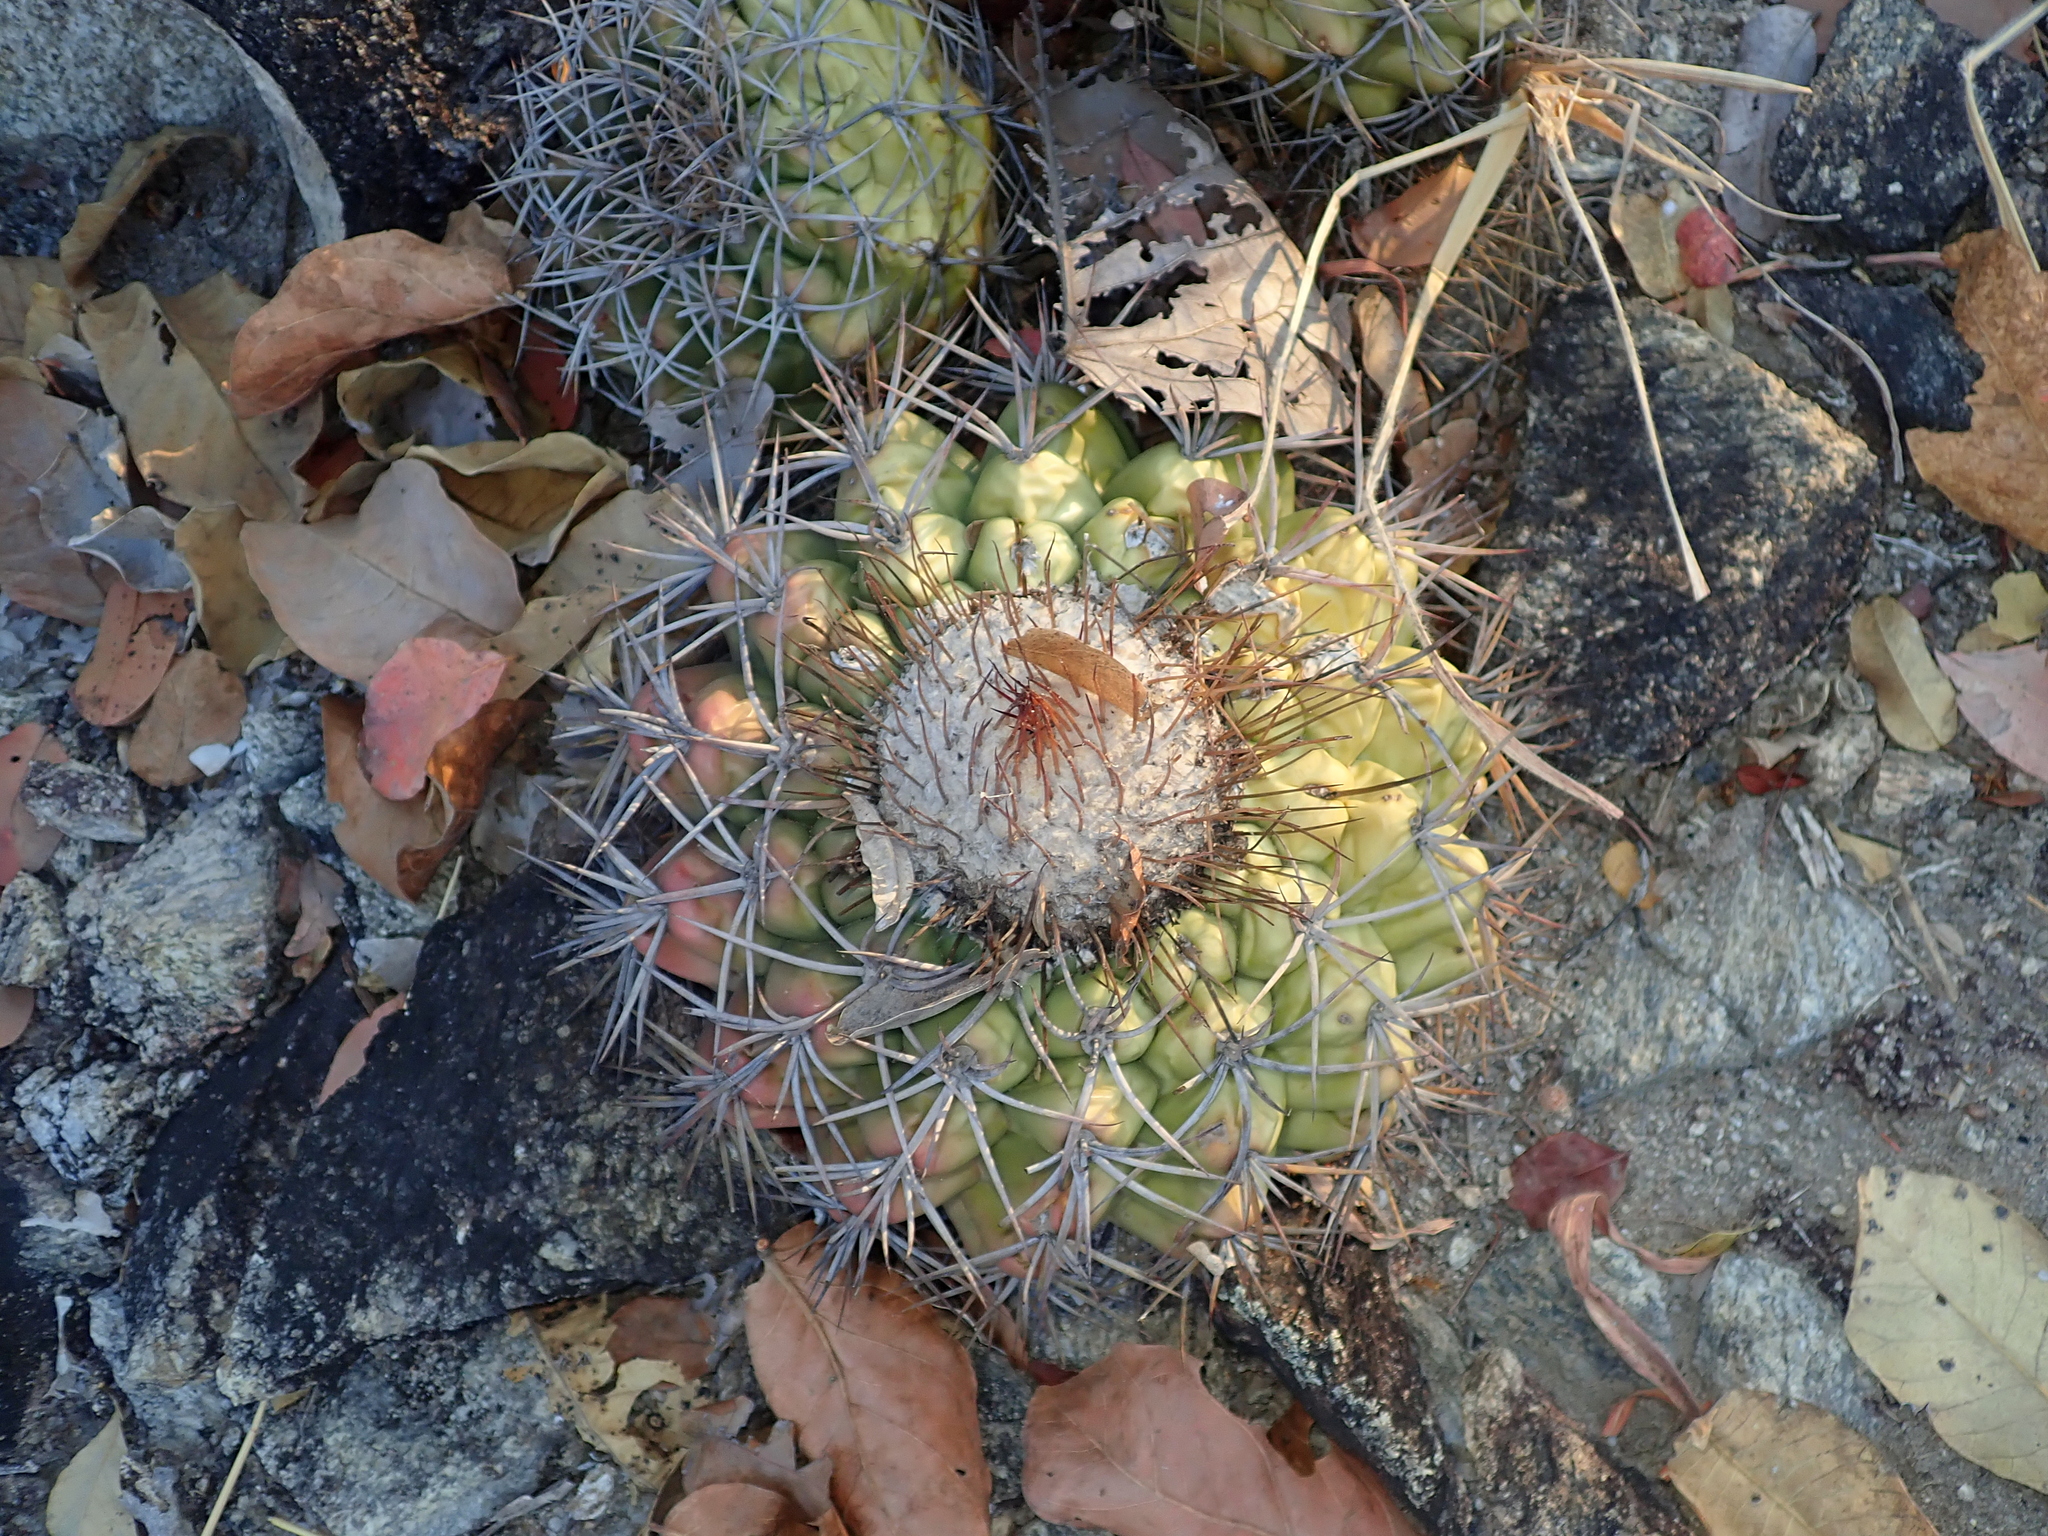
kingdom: Plantae
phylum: Tracheophyta
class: Magnoliopsida
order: Caryophyllales
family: Cactaceae
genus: Discocactus
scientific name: Discocactus diersianus
